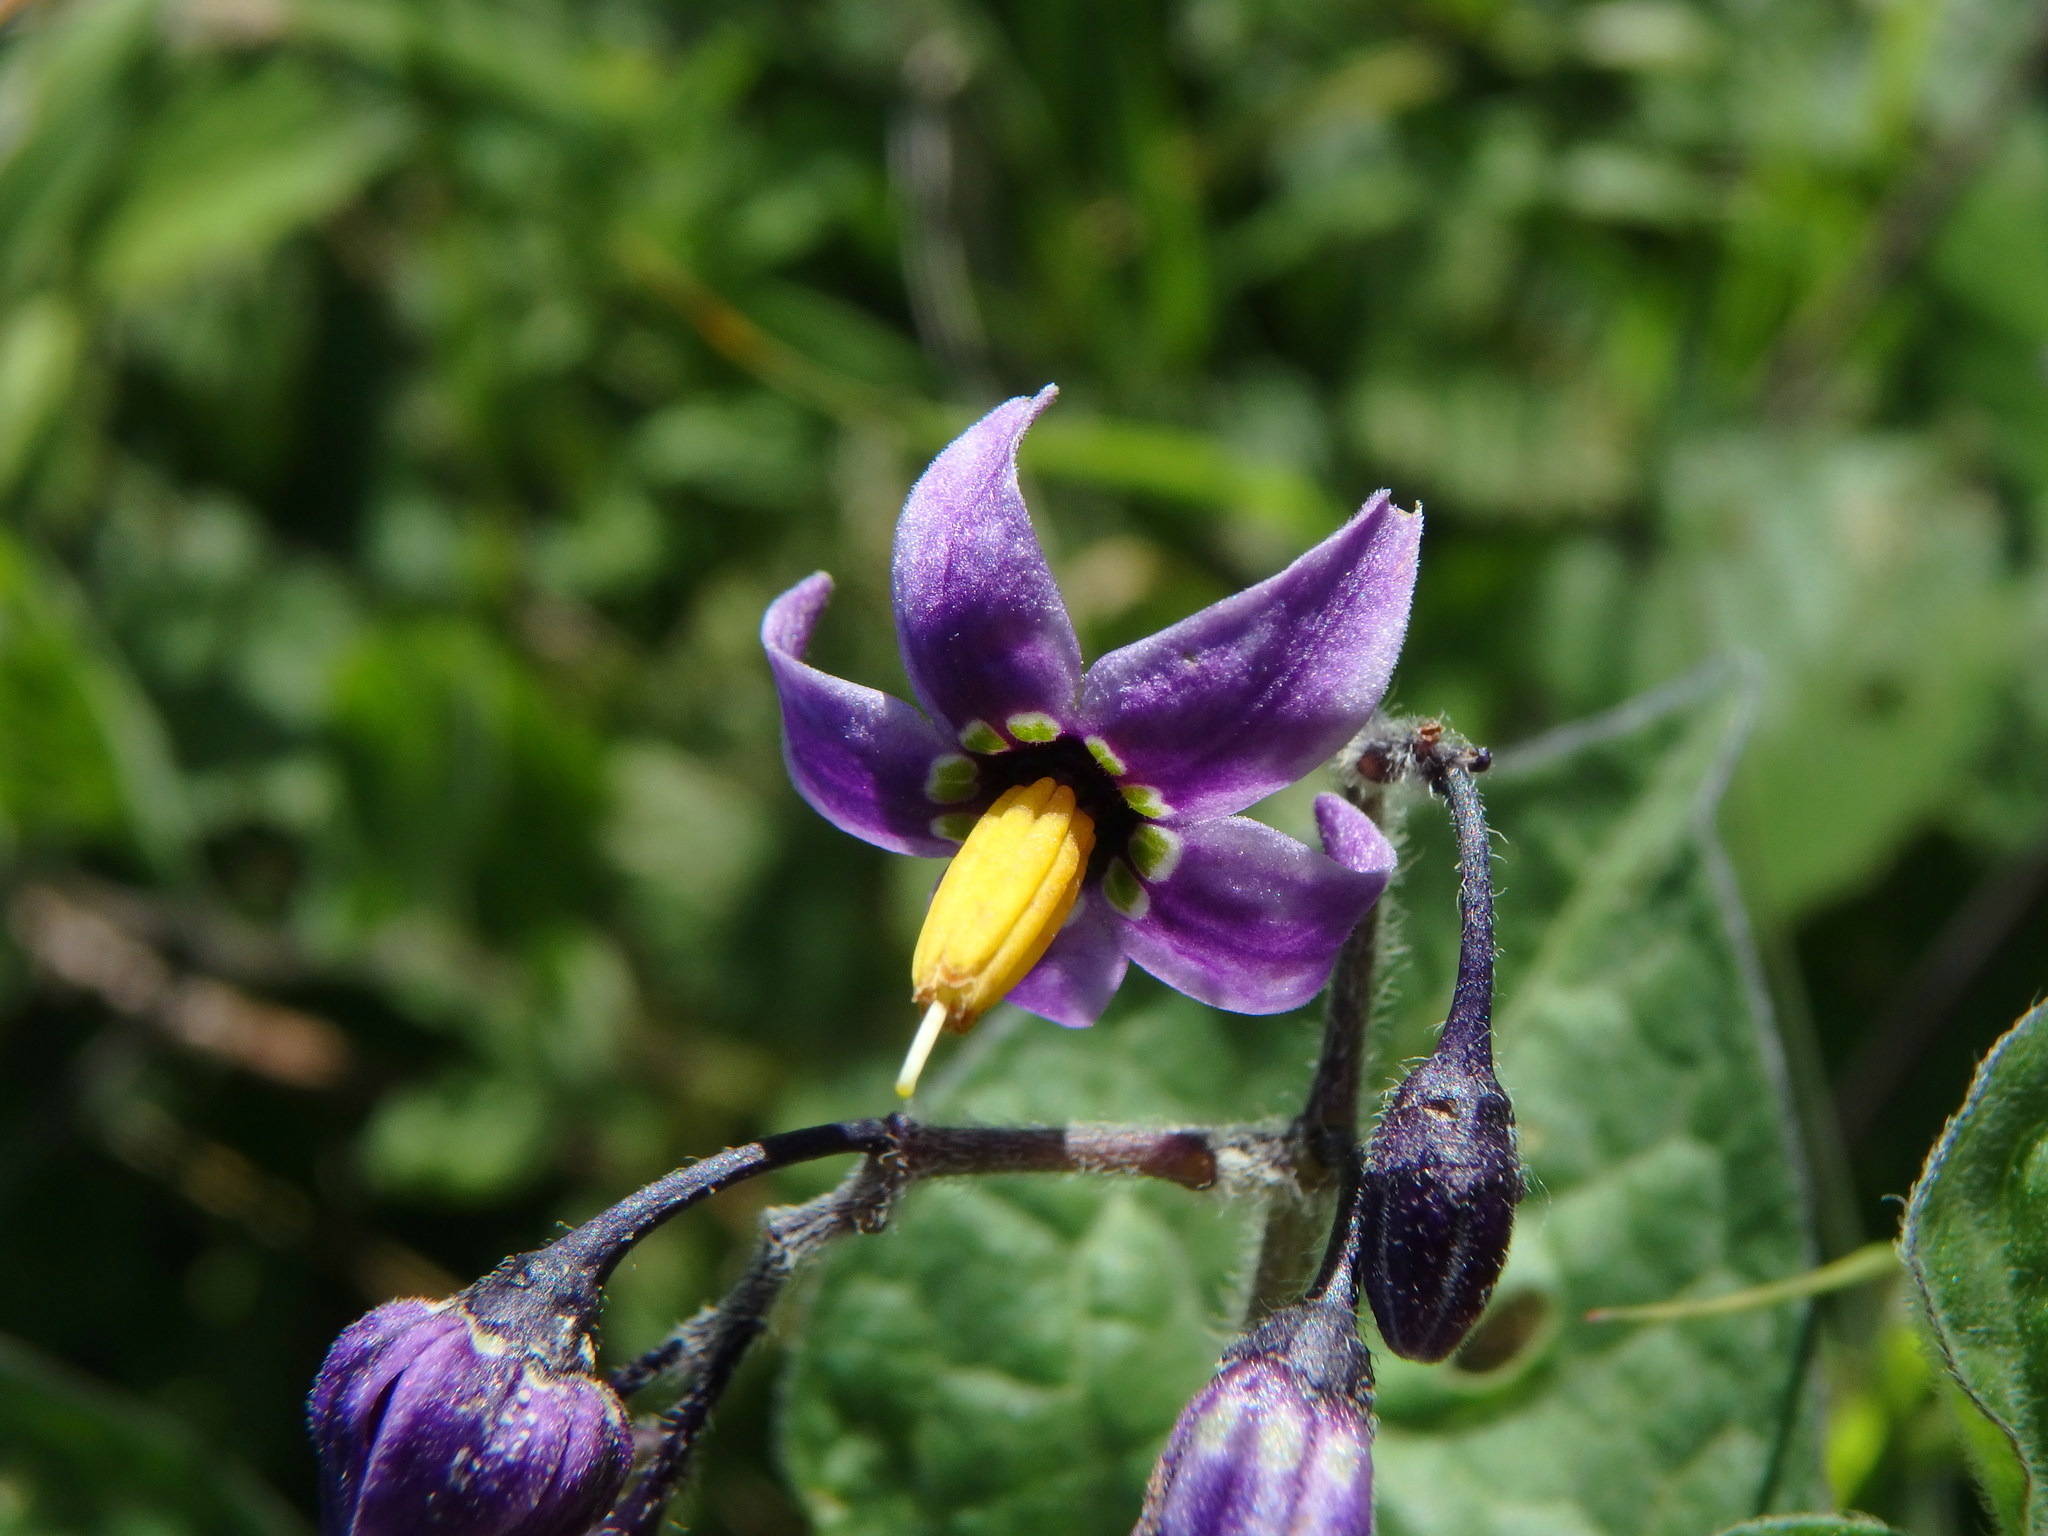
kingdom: Plantae
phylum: Tracheophyta
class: Magnoliopsida
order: Solanales
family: Solanaceae
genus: Solanum
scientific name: Solanum dulcamara
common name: Climbing nightshade
